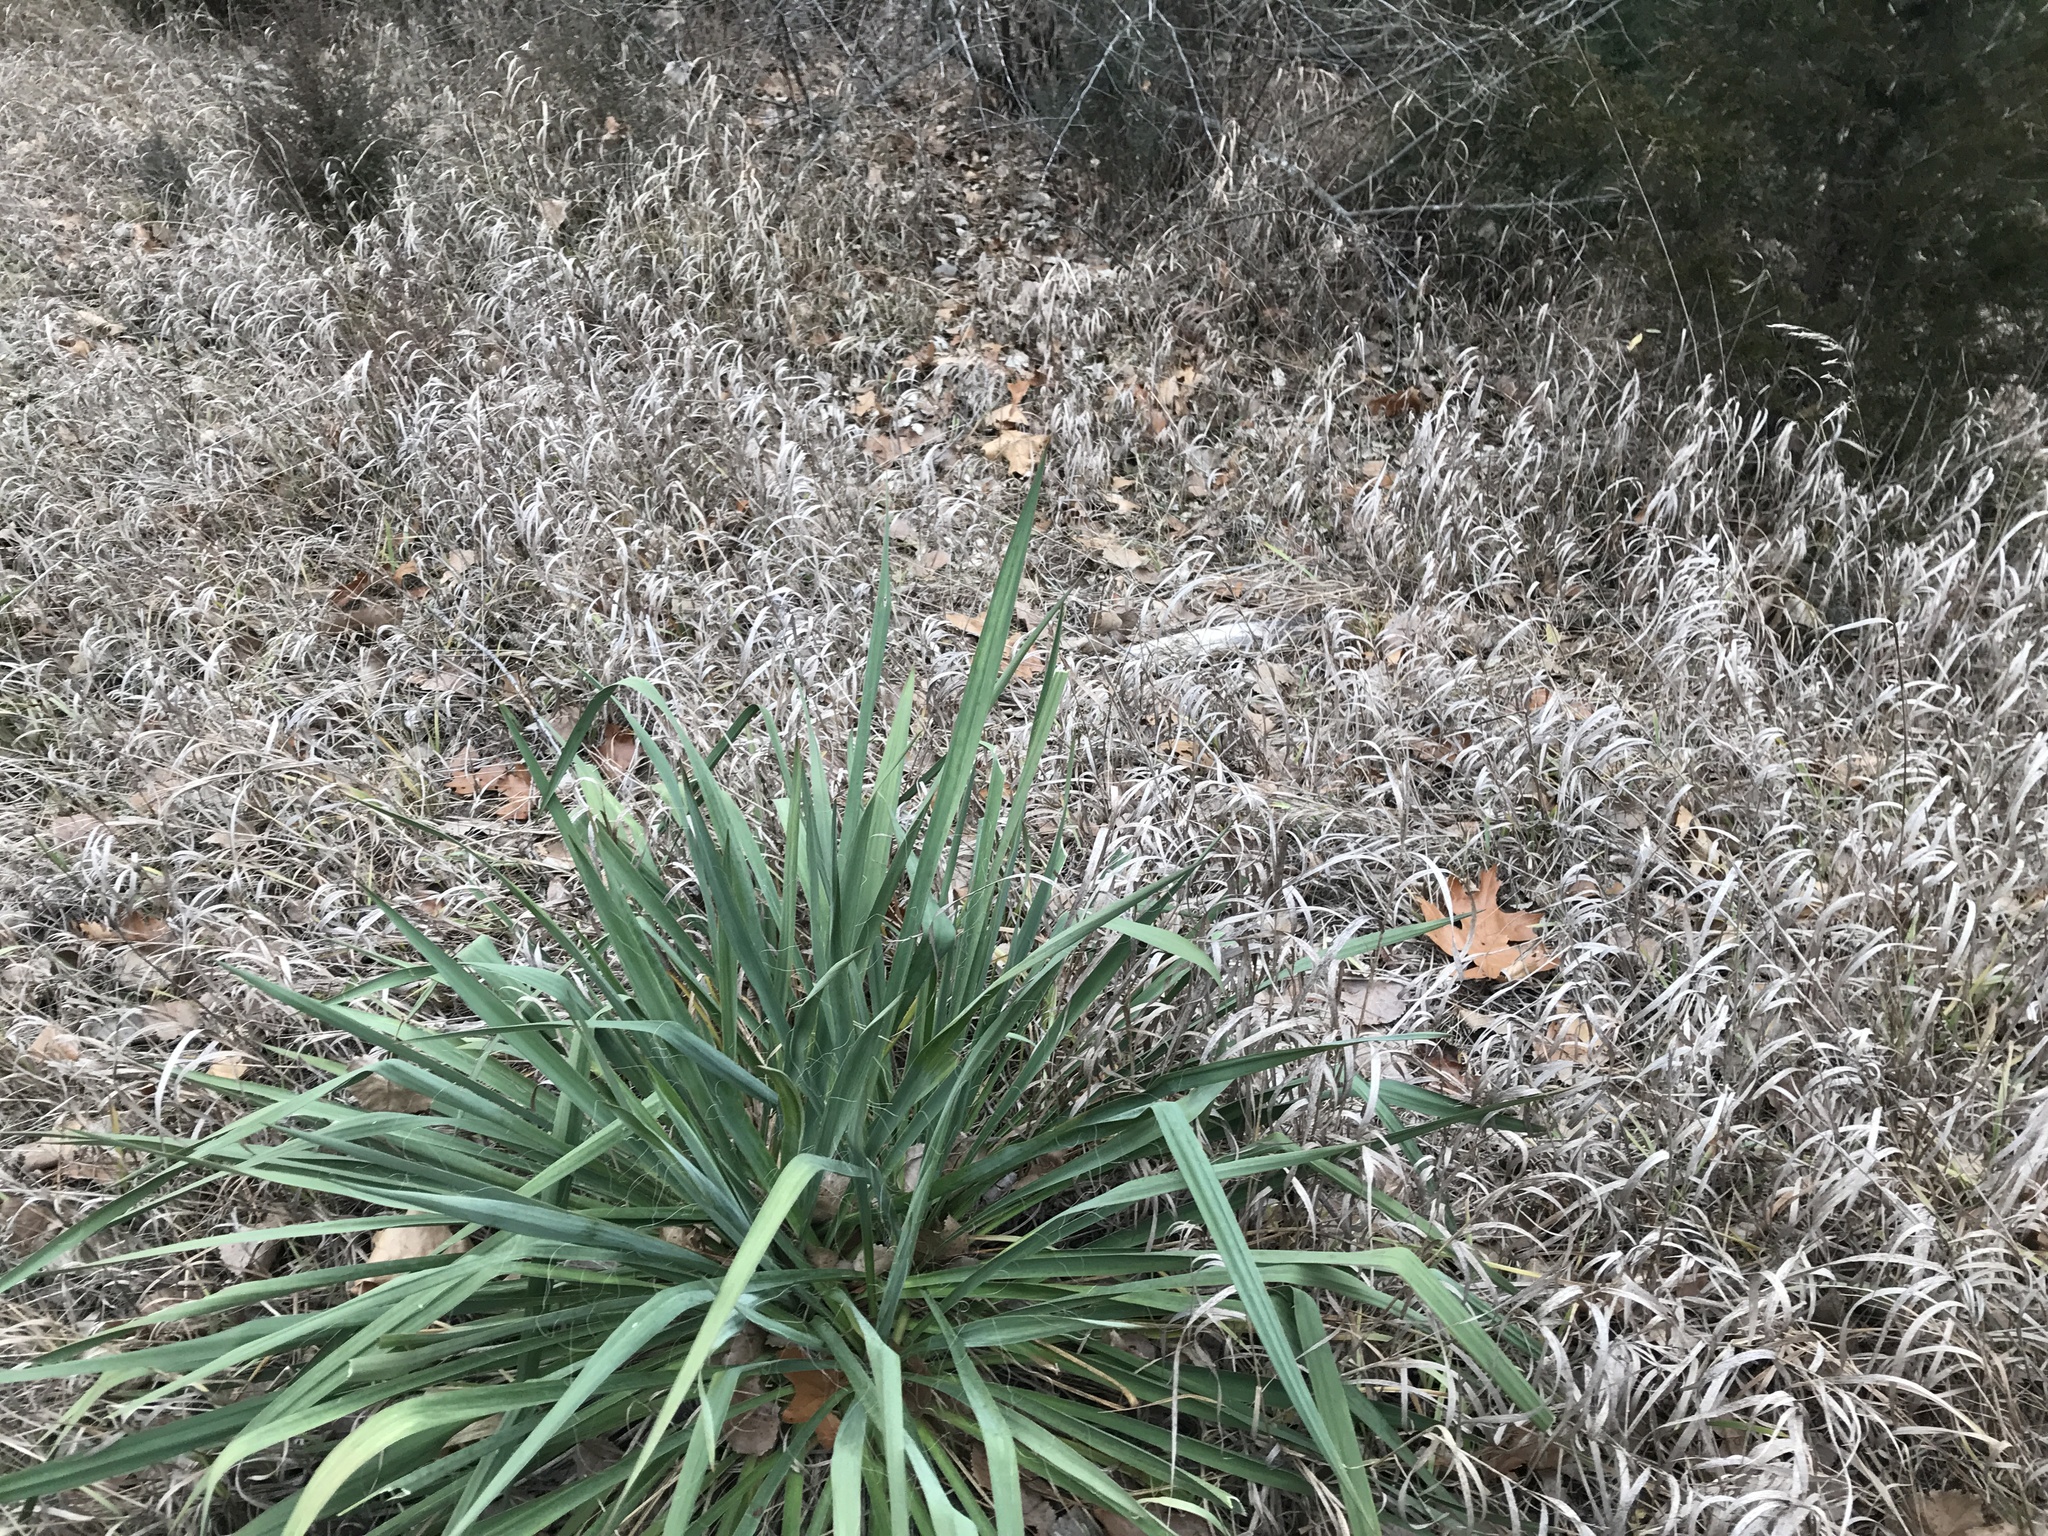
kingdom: Plantae
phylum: Tracheophyta
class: Liliopsida
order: Asparagales
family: Asparagaceae
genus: Yucca
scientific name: Yucca filamentosa
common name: Adam's-needle
